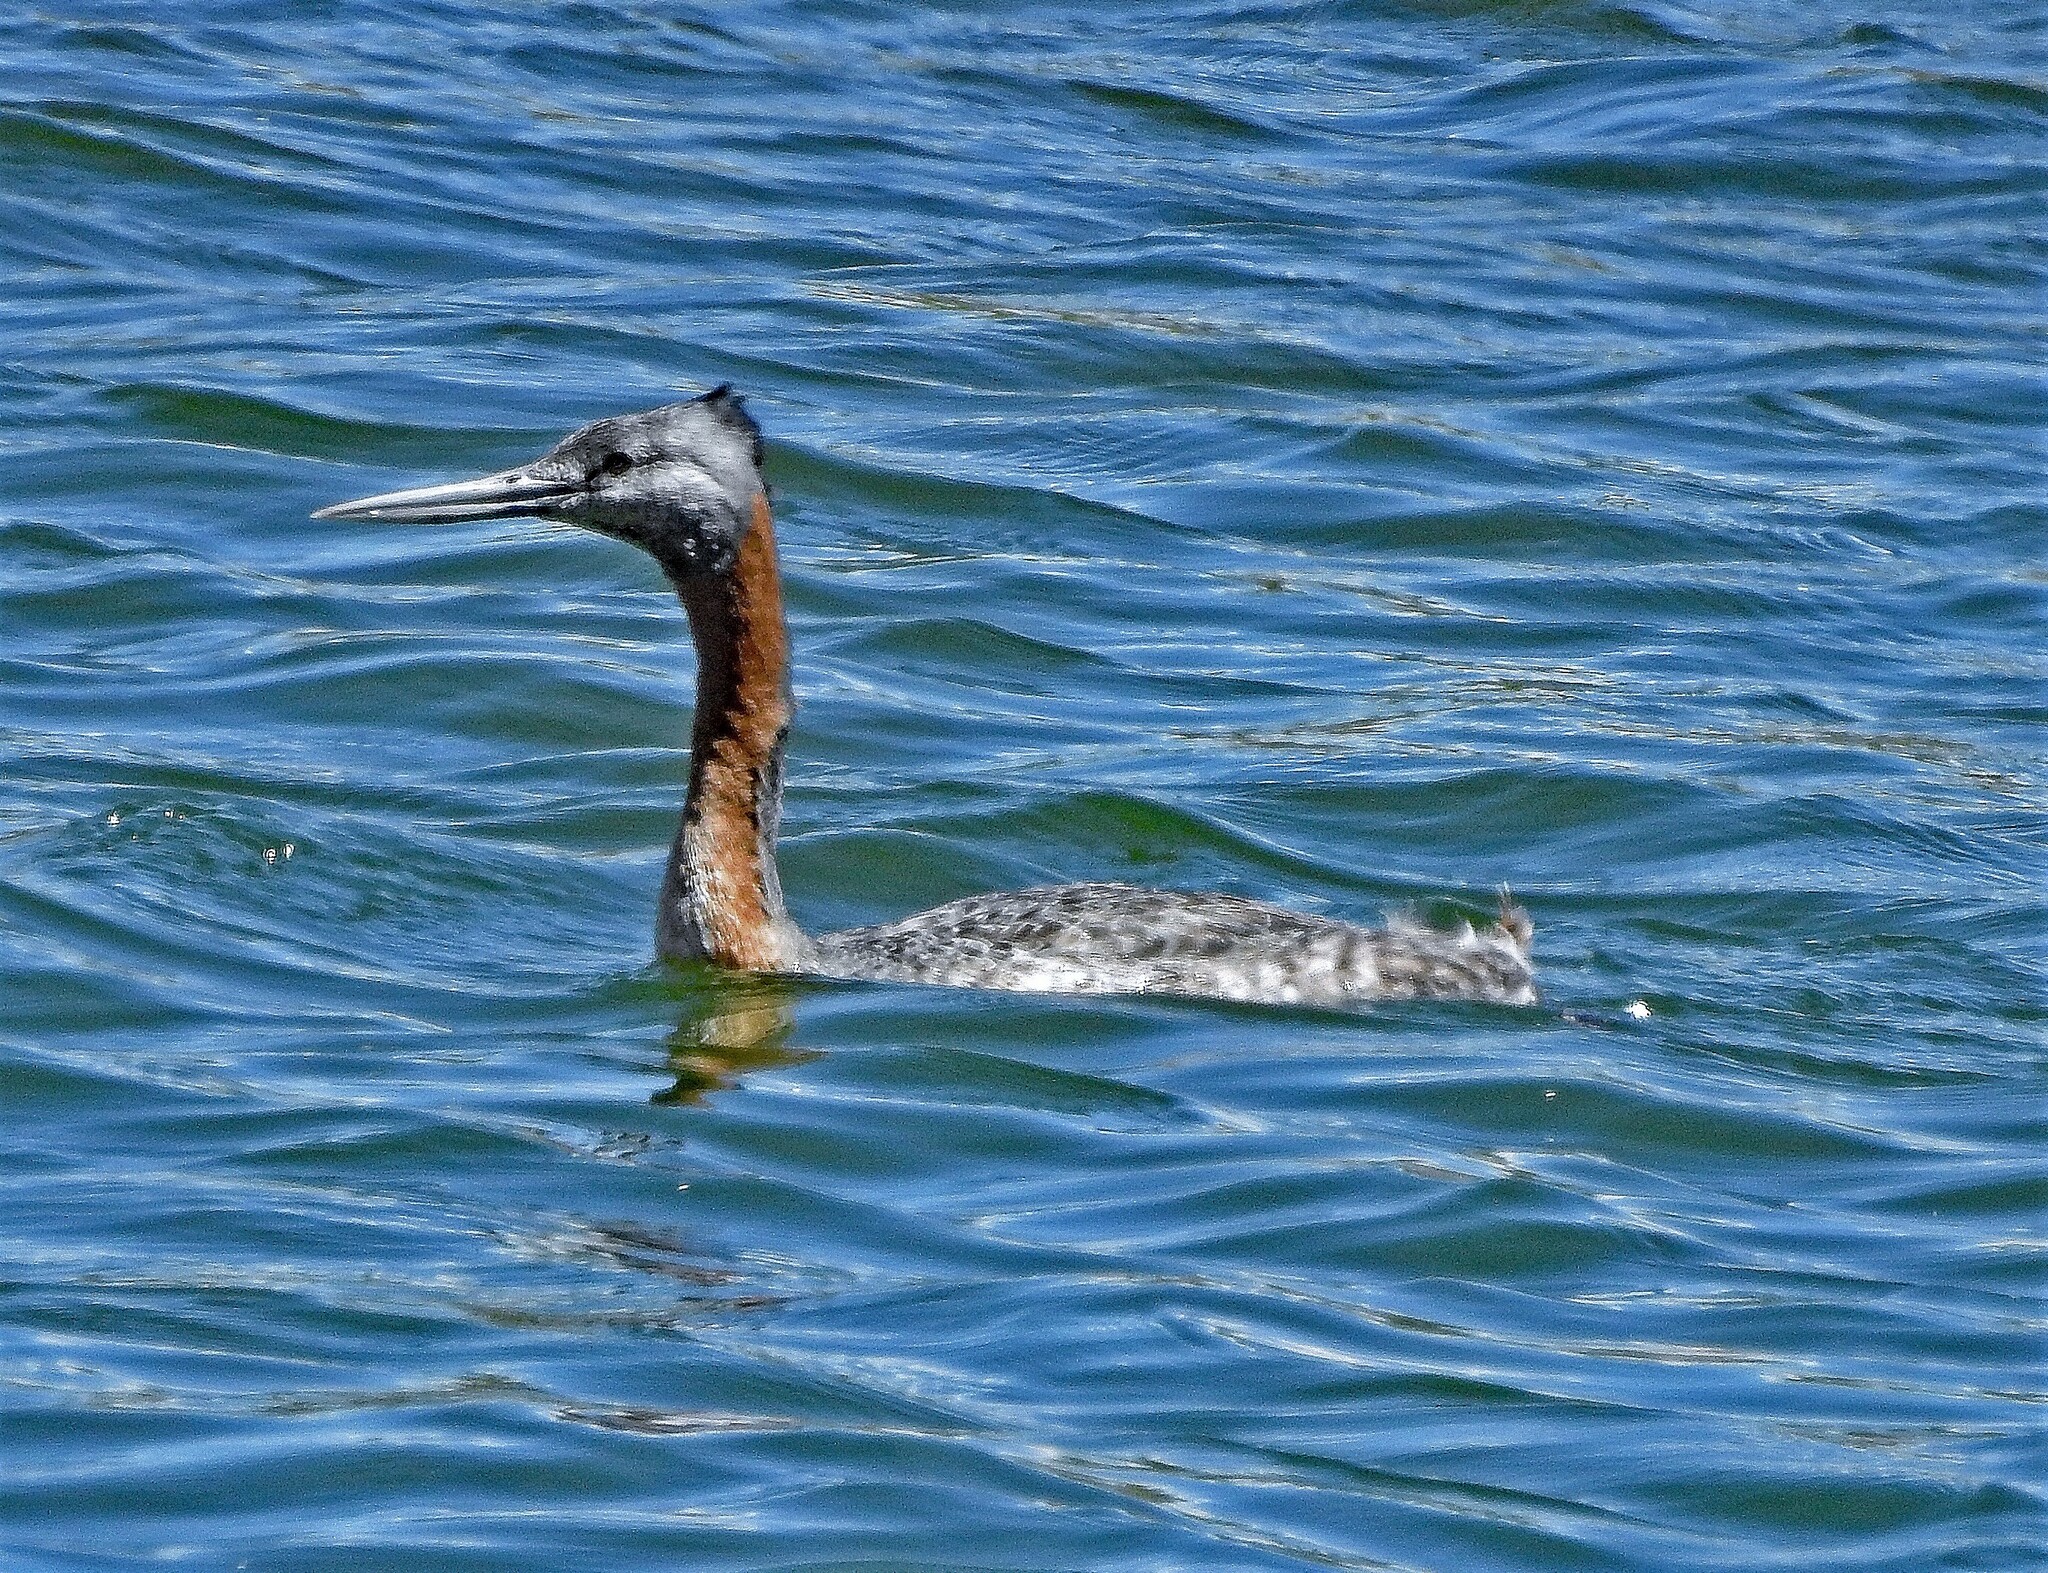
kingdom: Animalia
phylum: Chordata
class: Aves
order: Podicipediformes
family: Podicipedidae
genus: Podiceps
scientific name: Podiceps major
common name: Great grebe
